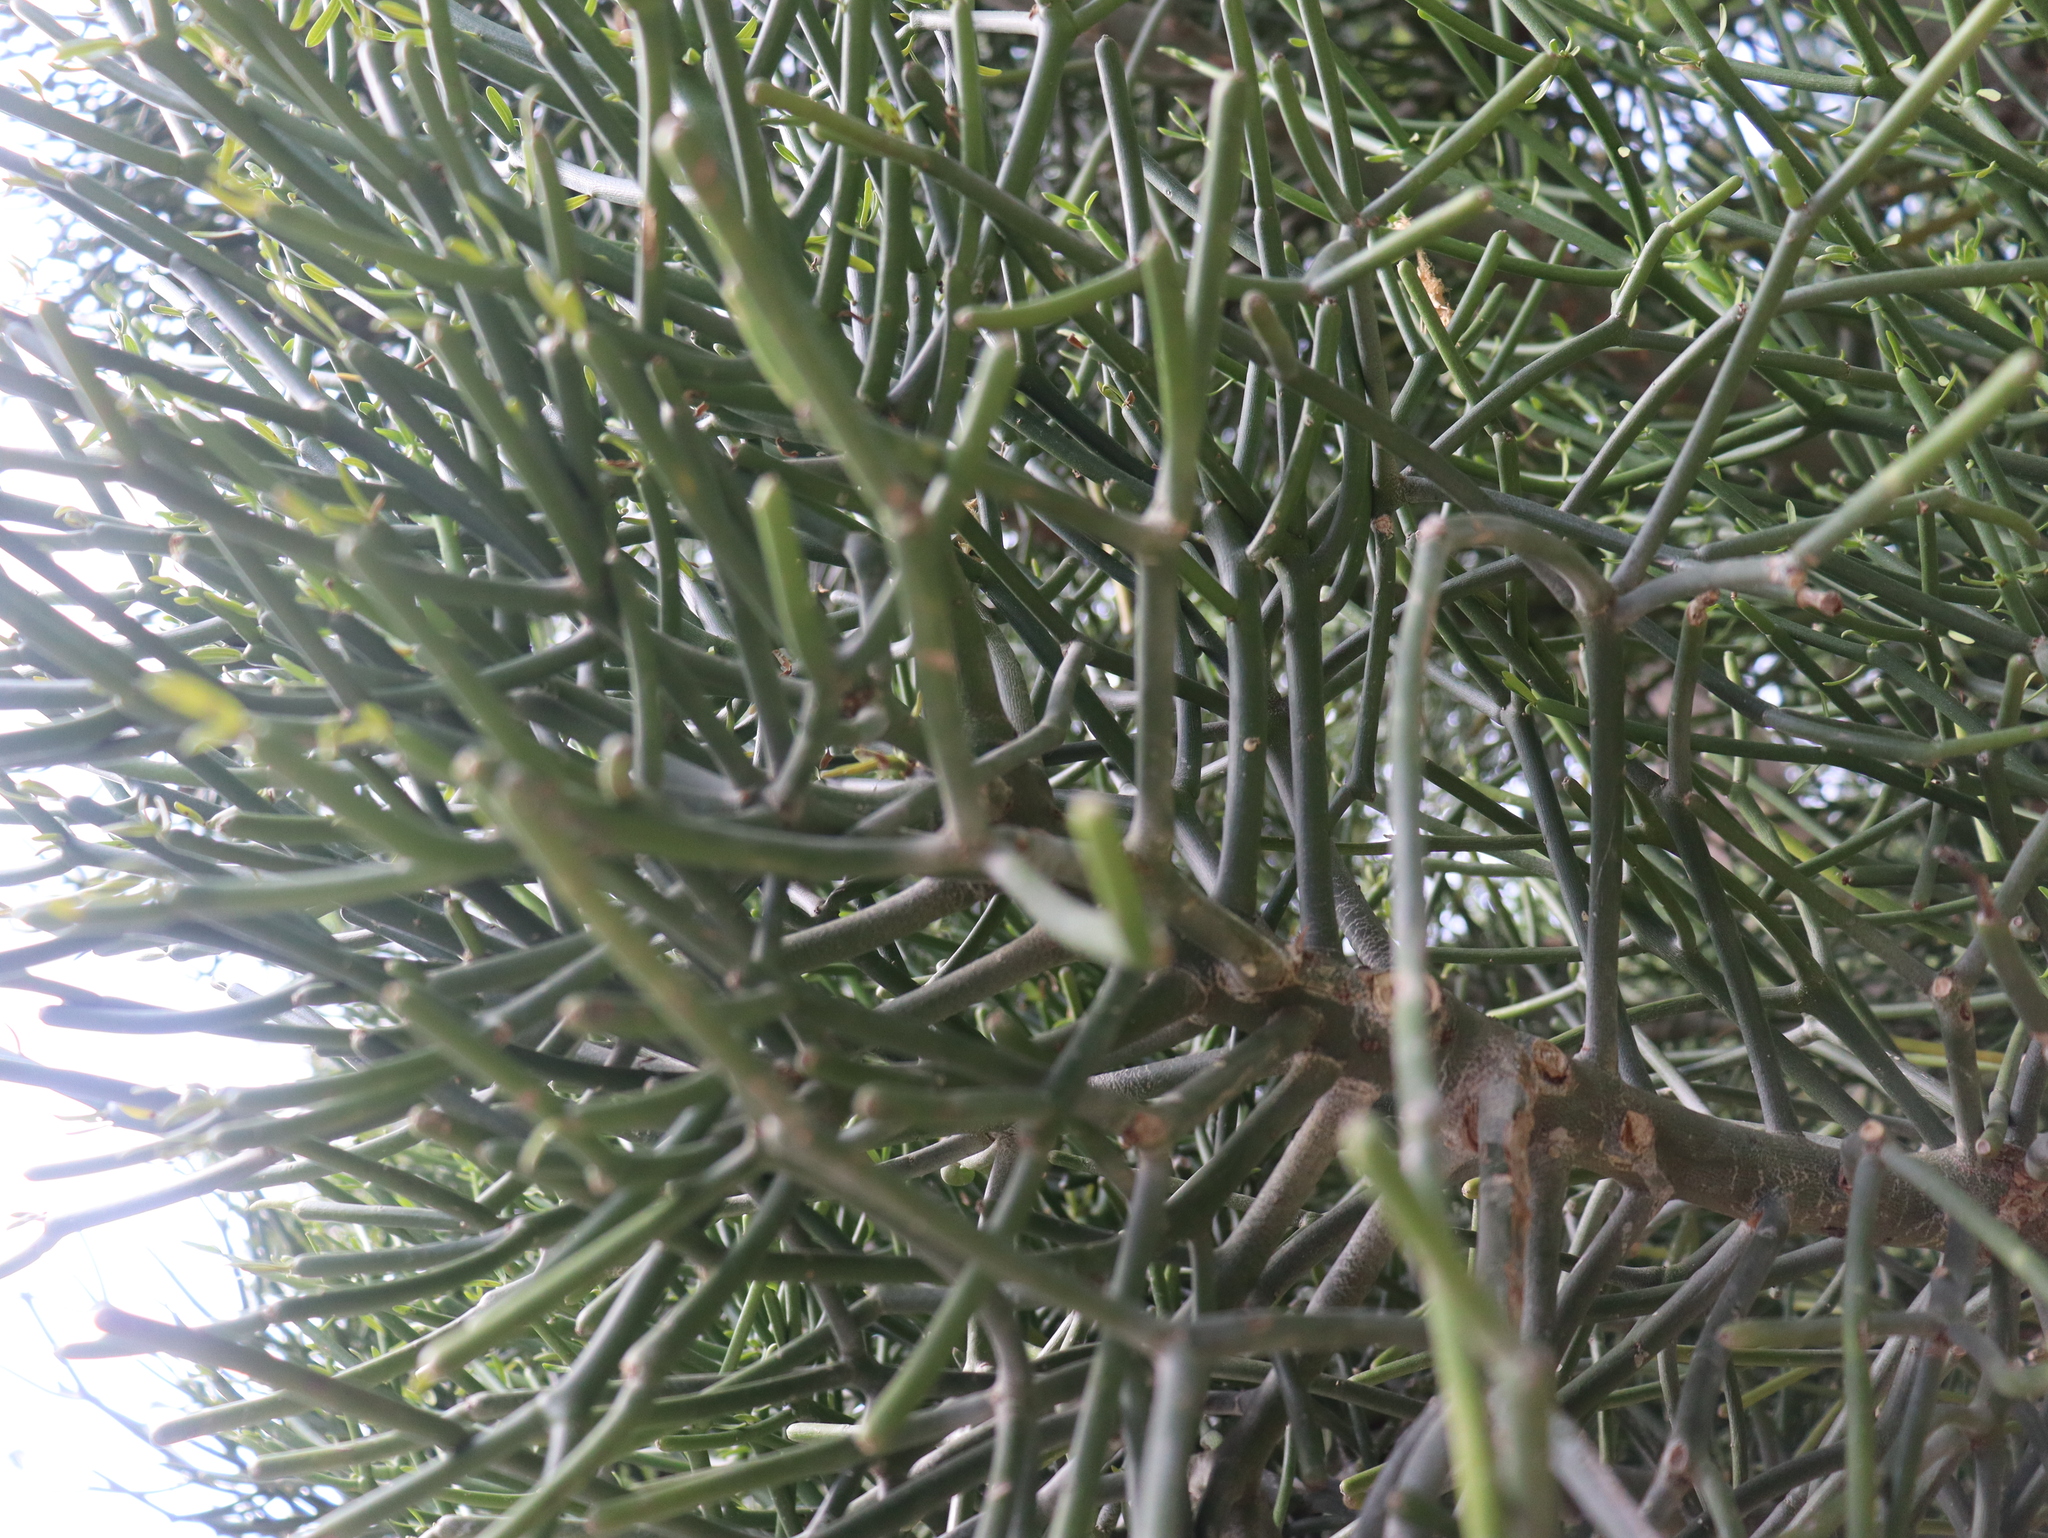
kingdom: Plantae
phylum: Tracheophyta
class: Magnoliopsida
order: Malpighiales
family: Euphorbiaceae
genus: Euphorbia
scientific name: Euphorbia tirucalli
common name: Indiantree spurge
